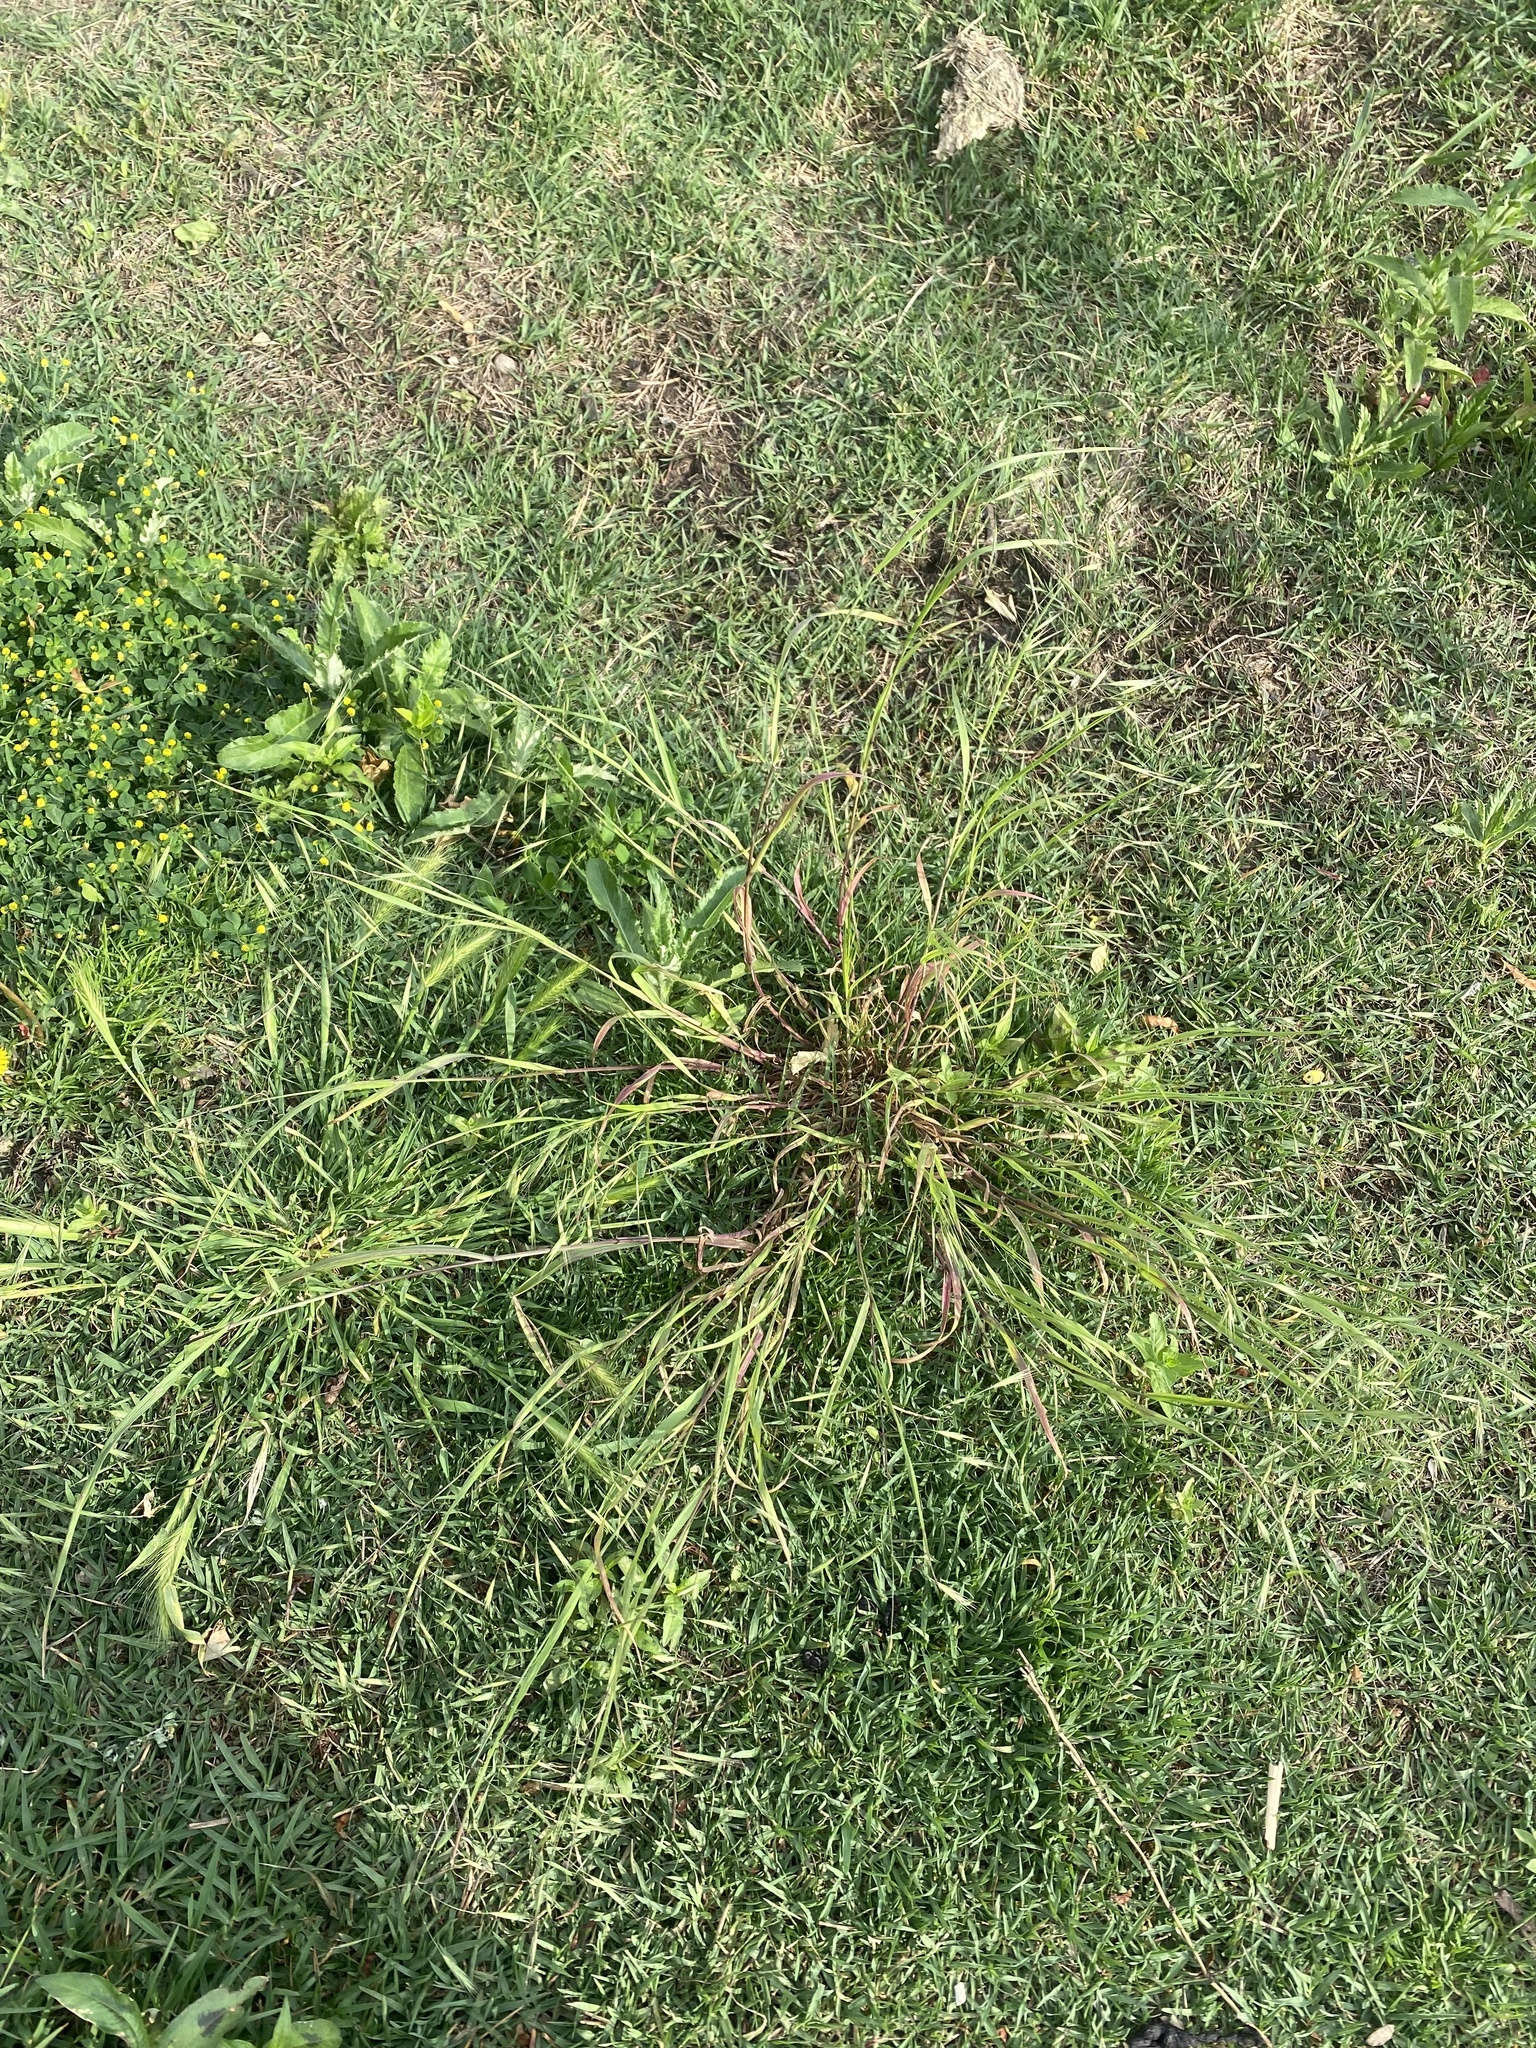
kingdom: Plantae
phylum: Tracheophyta
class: Liliopsida
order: Poales
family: Poaceae
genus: Bromus
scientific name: Bromus tectorum
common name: Cheatgrass
